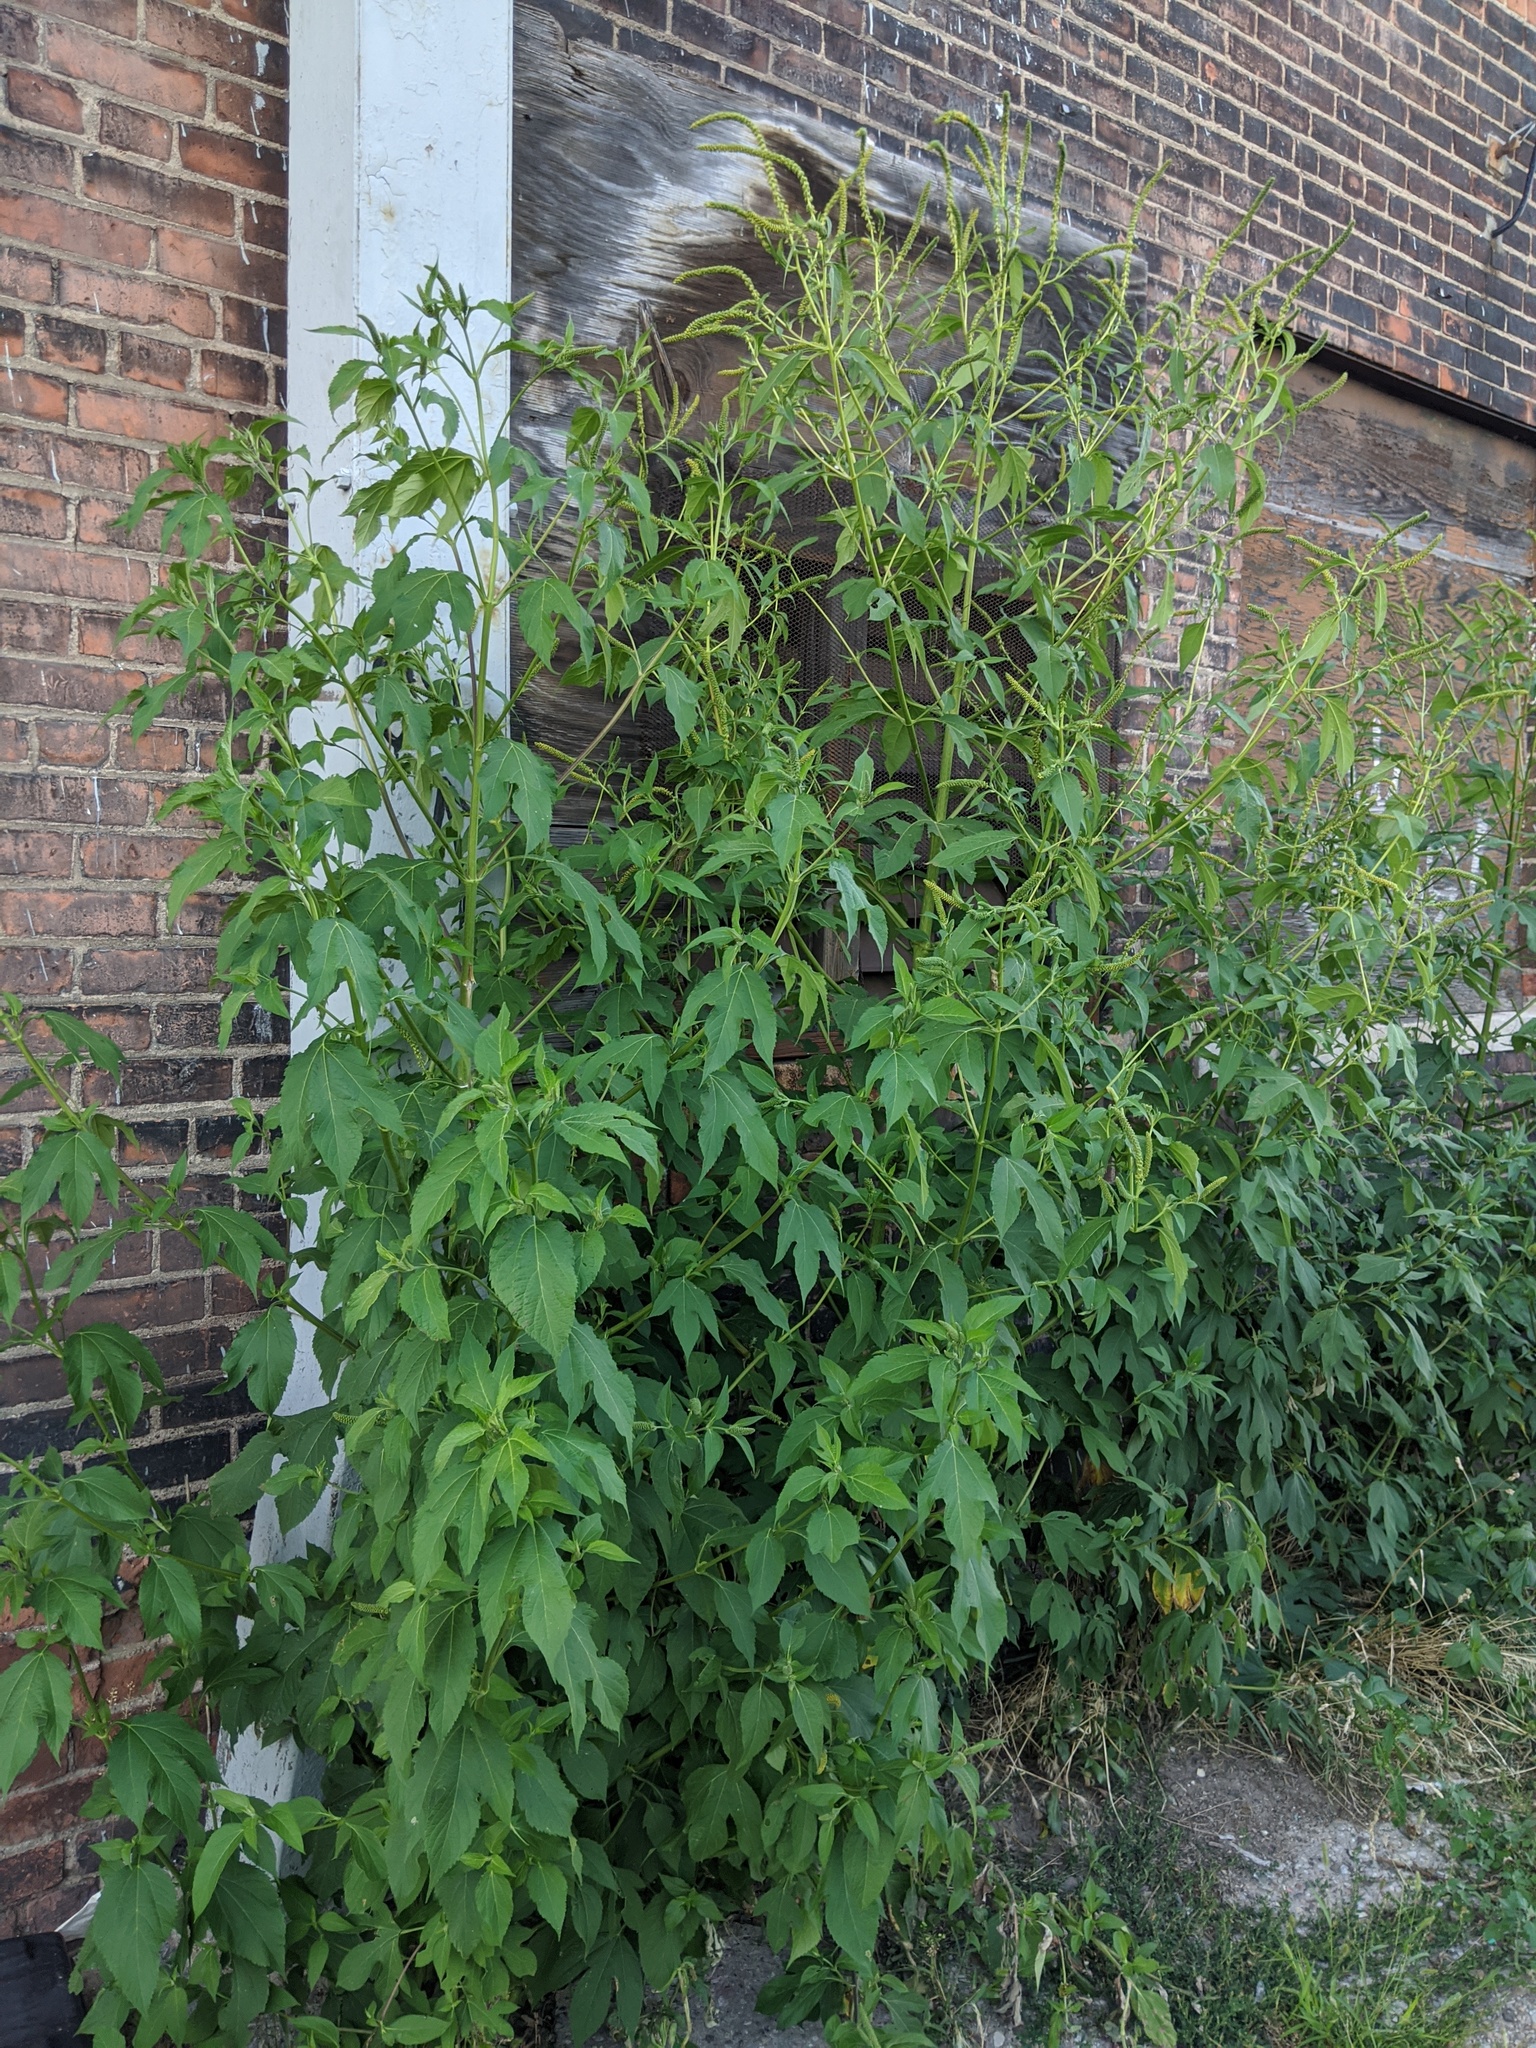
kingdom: Plantae
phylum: Tracheophyta
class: Magnoliopsida
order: Asterales
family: Asteraceae
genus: Ambrosia
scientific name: Ambrosia trifida
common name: Giant ragweed
